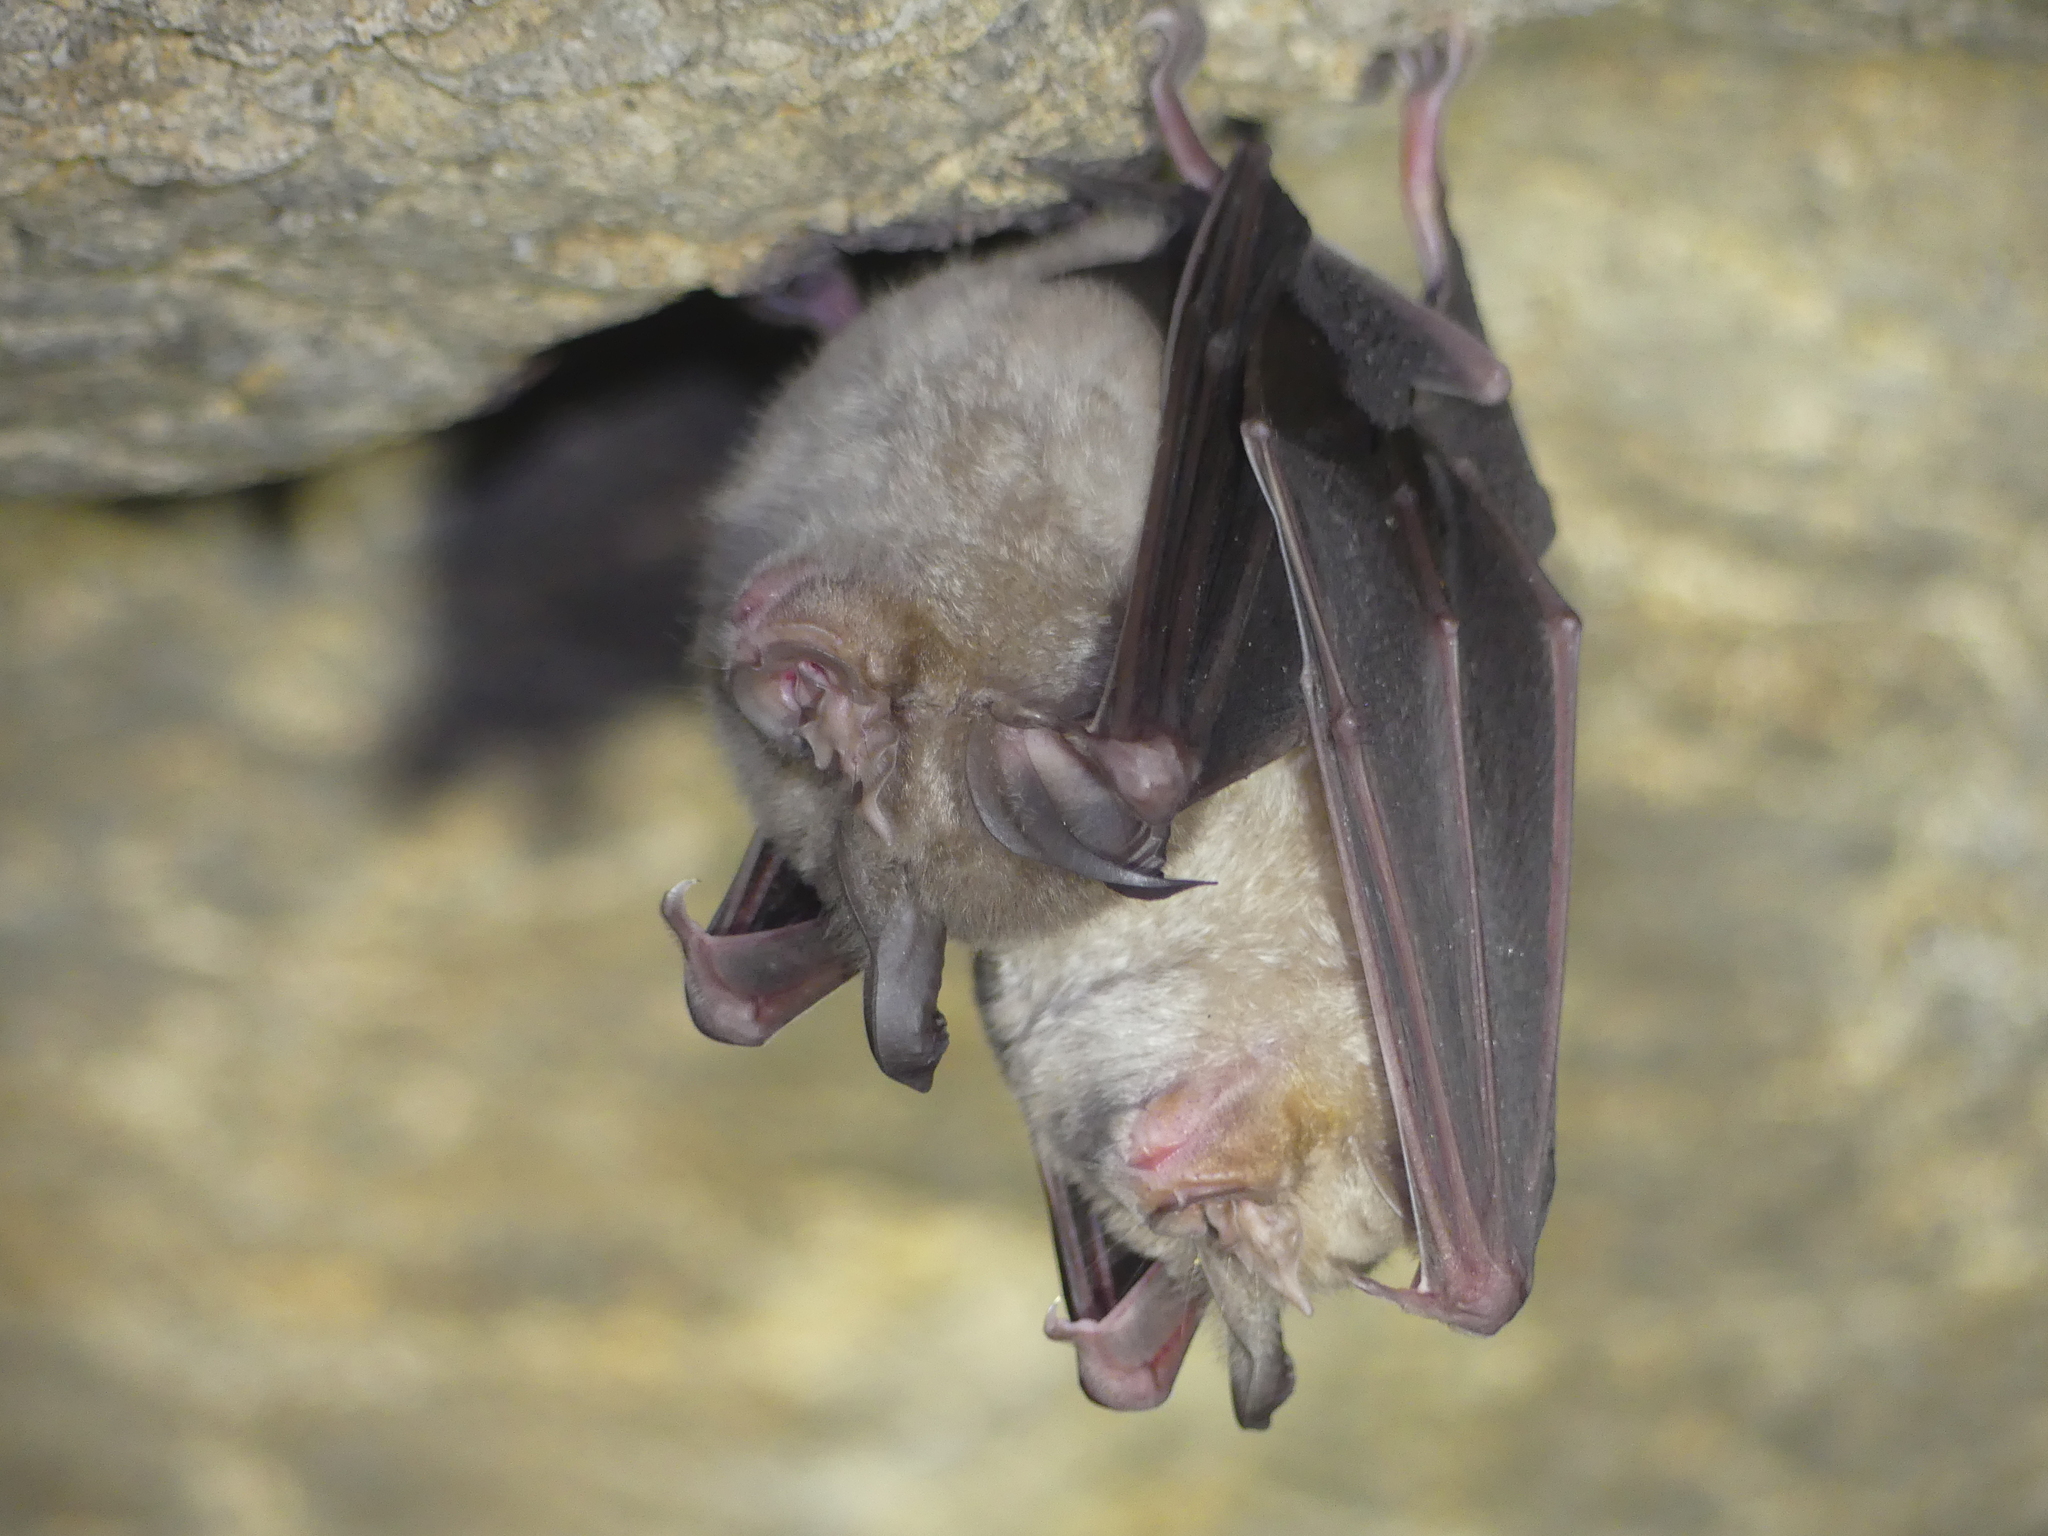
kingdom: Animalia
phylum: Chordata
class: Mammalia
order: Chiroptera
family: Rhinolophidae
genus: Rhinolophus
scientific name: Rhinolophus ferrumequinum
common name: Greater horseshoe bat
